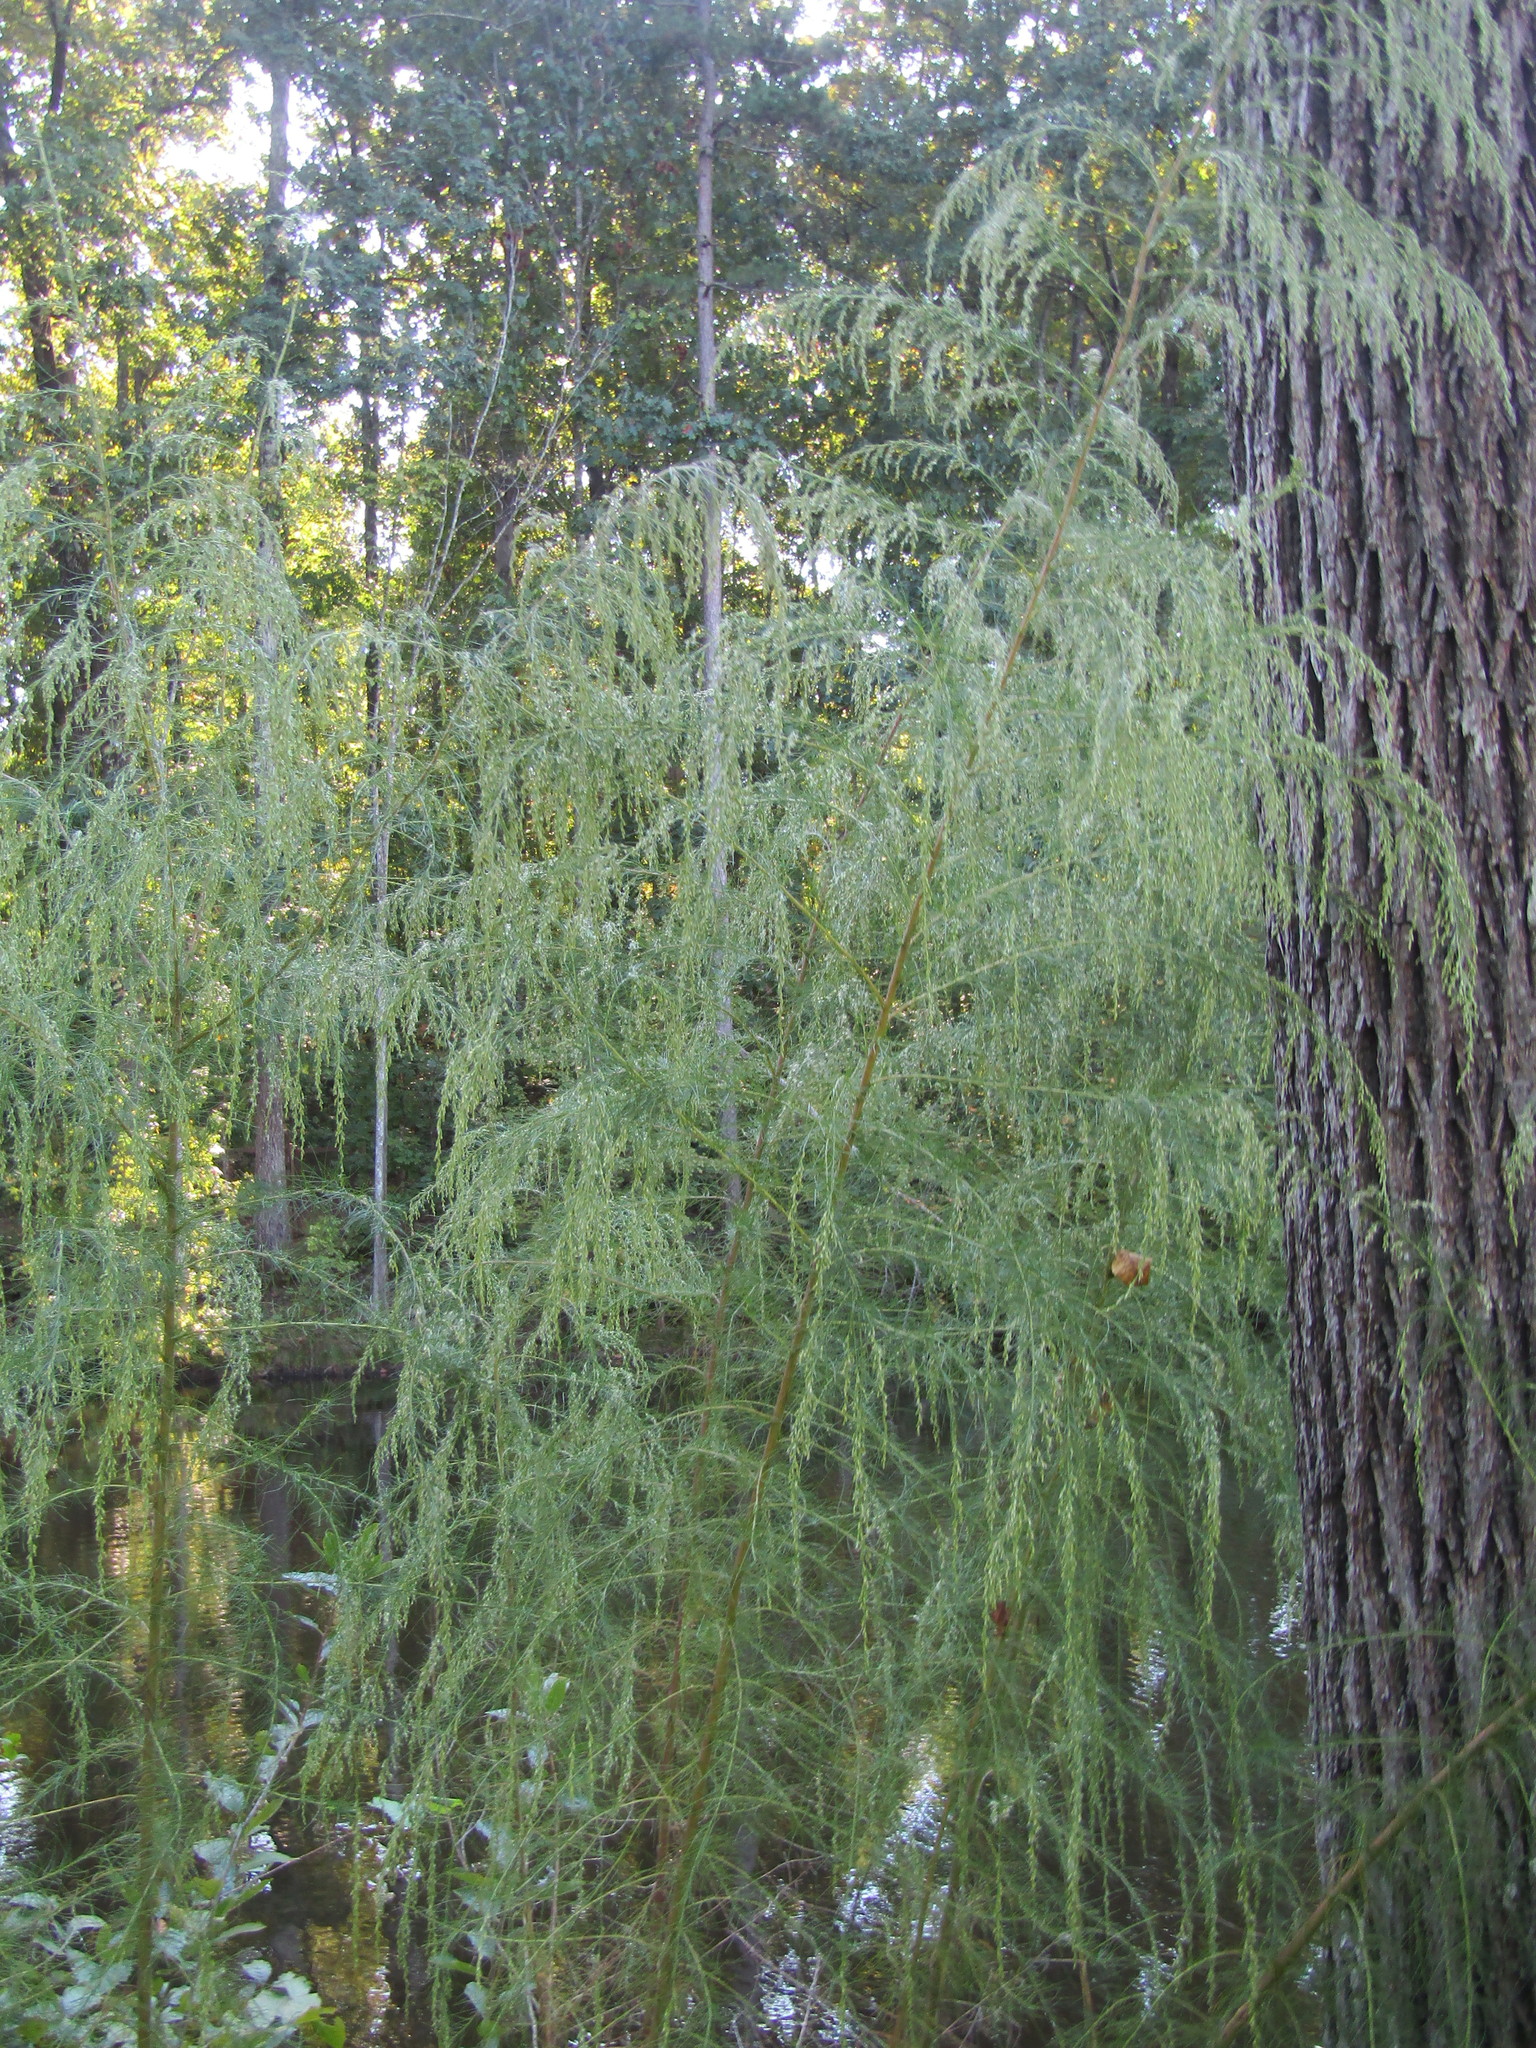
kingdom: Plantae
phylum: Tracheophyta
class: Magnoliopsida
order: Asterales
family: Asteraceae
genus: Eupatorium
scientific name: Eupatorium capillifolium
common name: Dog-fennel
